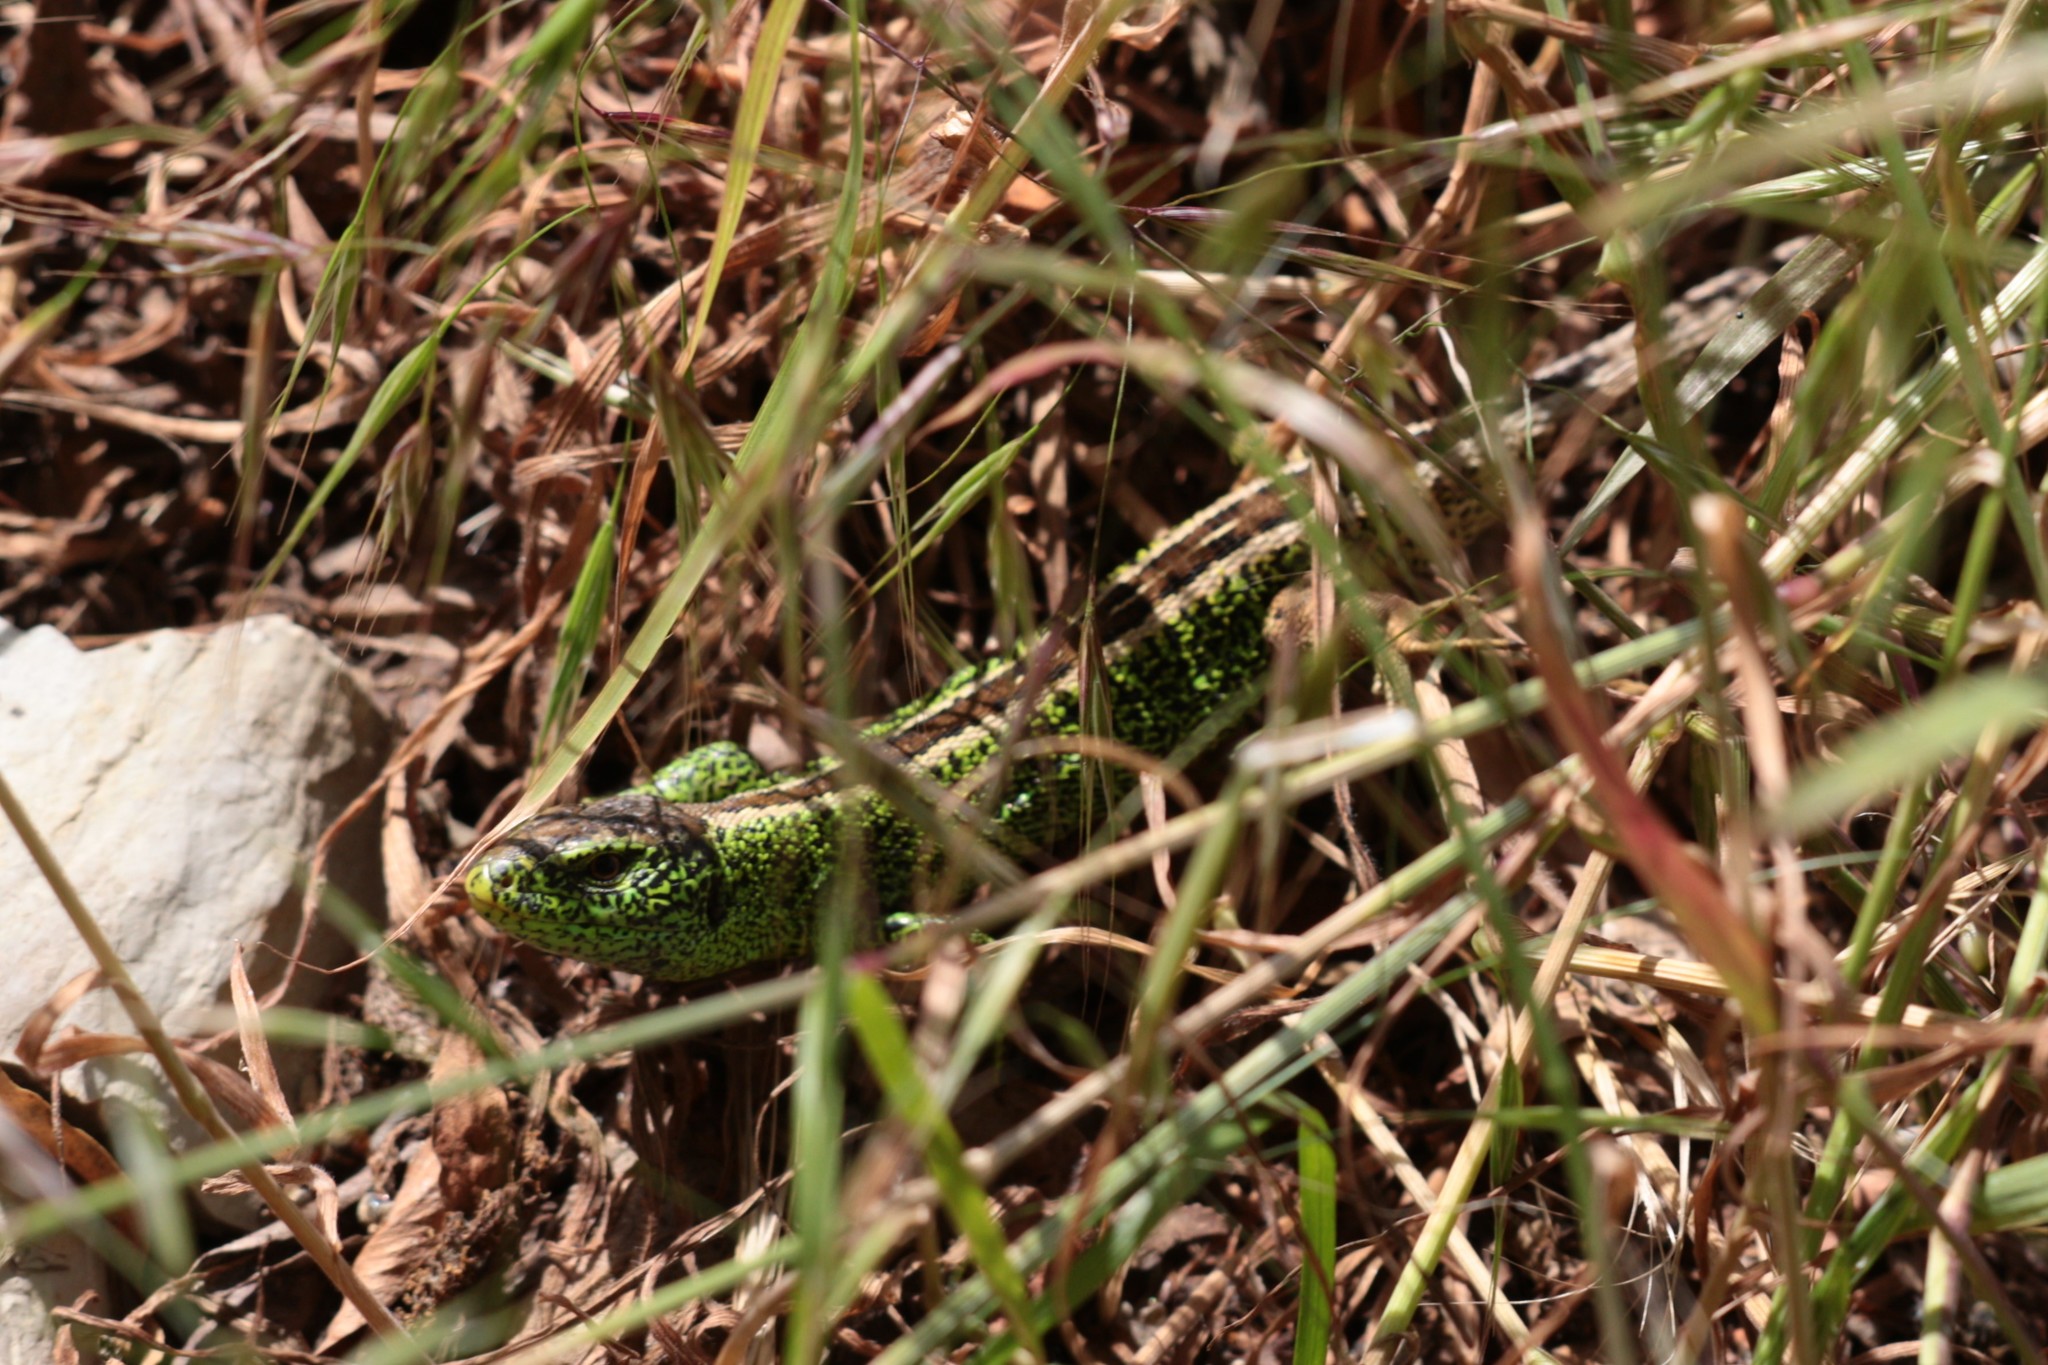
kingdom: Animalia
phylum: Chordata
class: Squamata
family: Lacertidae
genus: Lacerta
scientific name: Lacerta agilis
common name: Sand lizard
